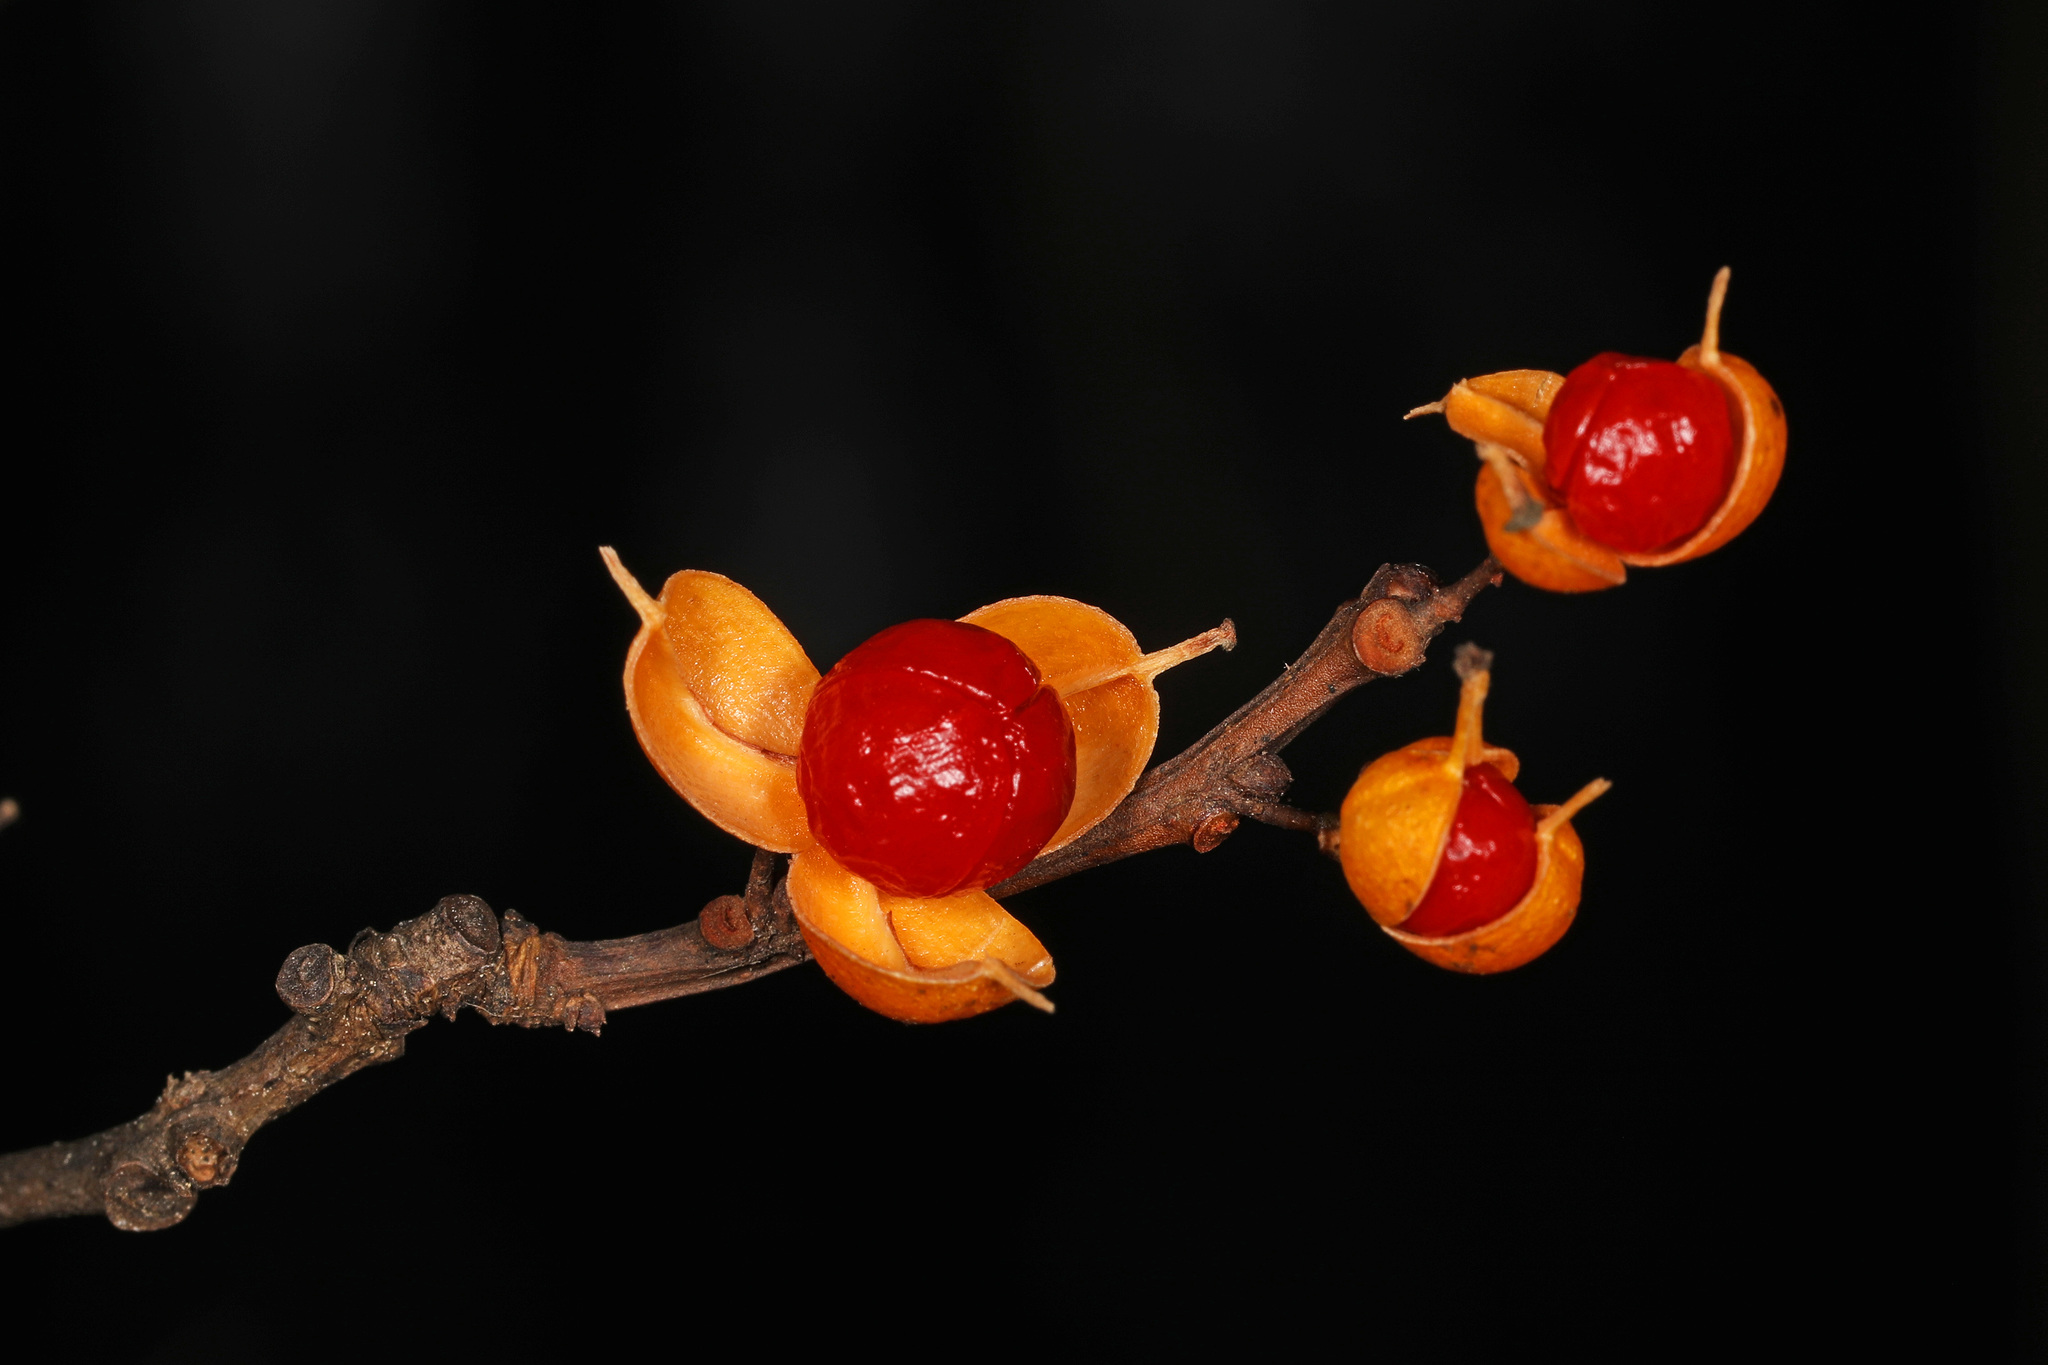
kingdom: Plantae
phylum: Tracheophyta
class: Magnoliopsida
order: Celastrales
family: Celastraceae
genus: Celastrus
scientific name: Celastrus orbiculatus
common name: Oriental bittersweet
